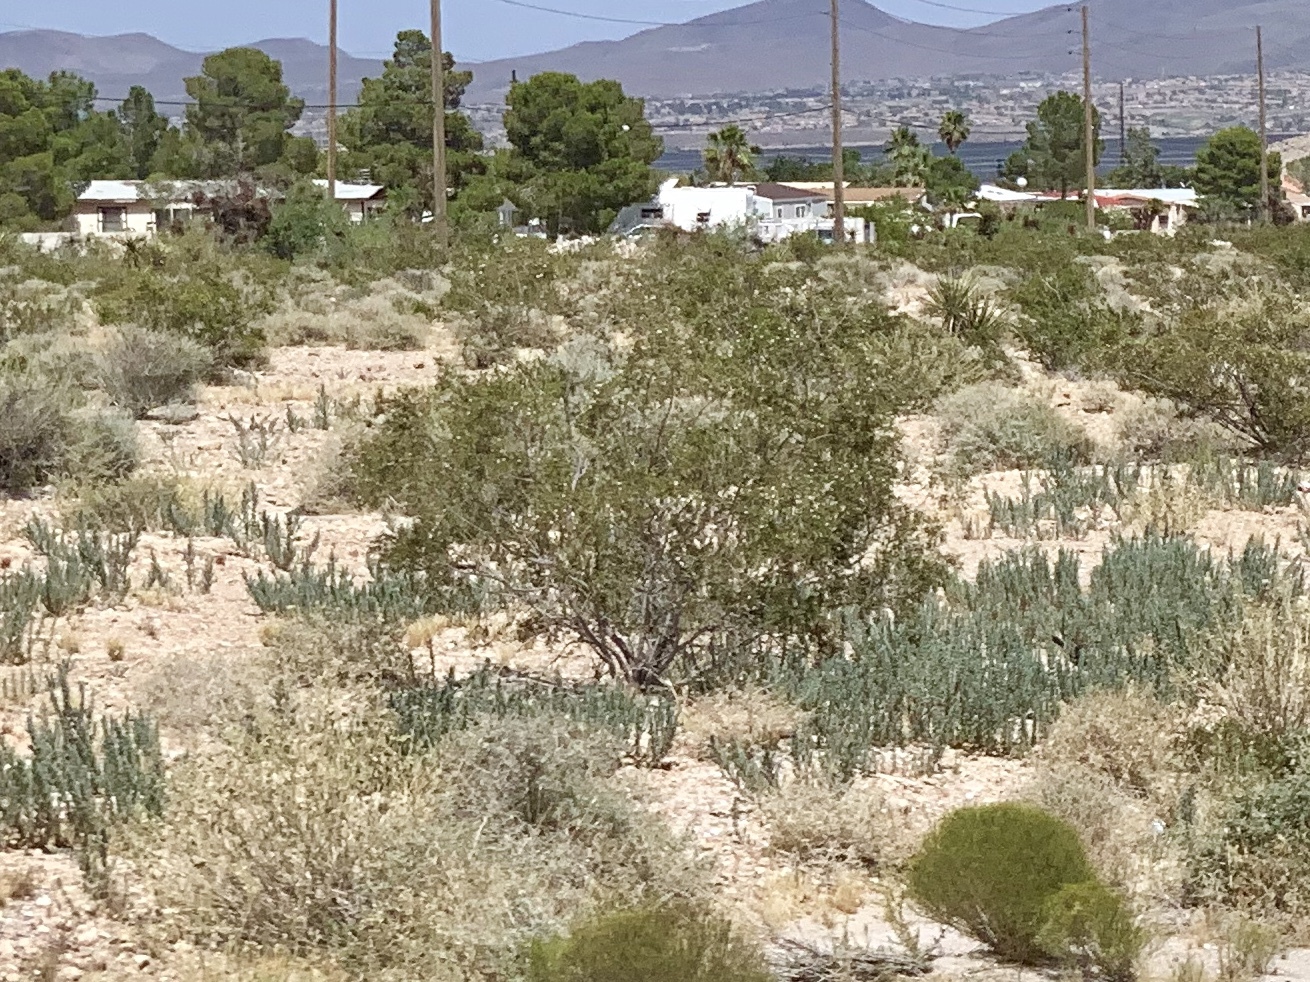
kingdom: Plantae
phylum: Tracheophyta
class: Magnoliopsida
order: Zygophyllales
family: Zygophyllaceae
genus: Larrea
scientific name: Larrea tridentata
